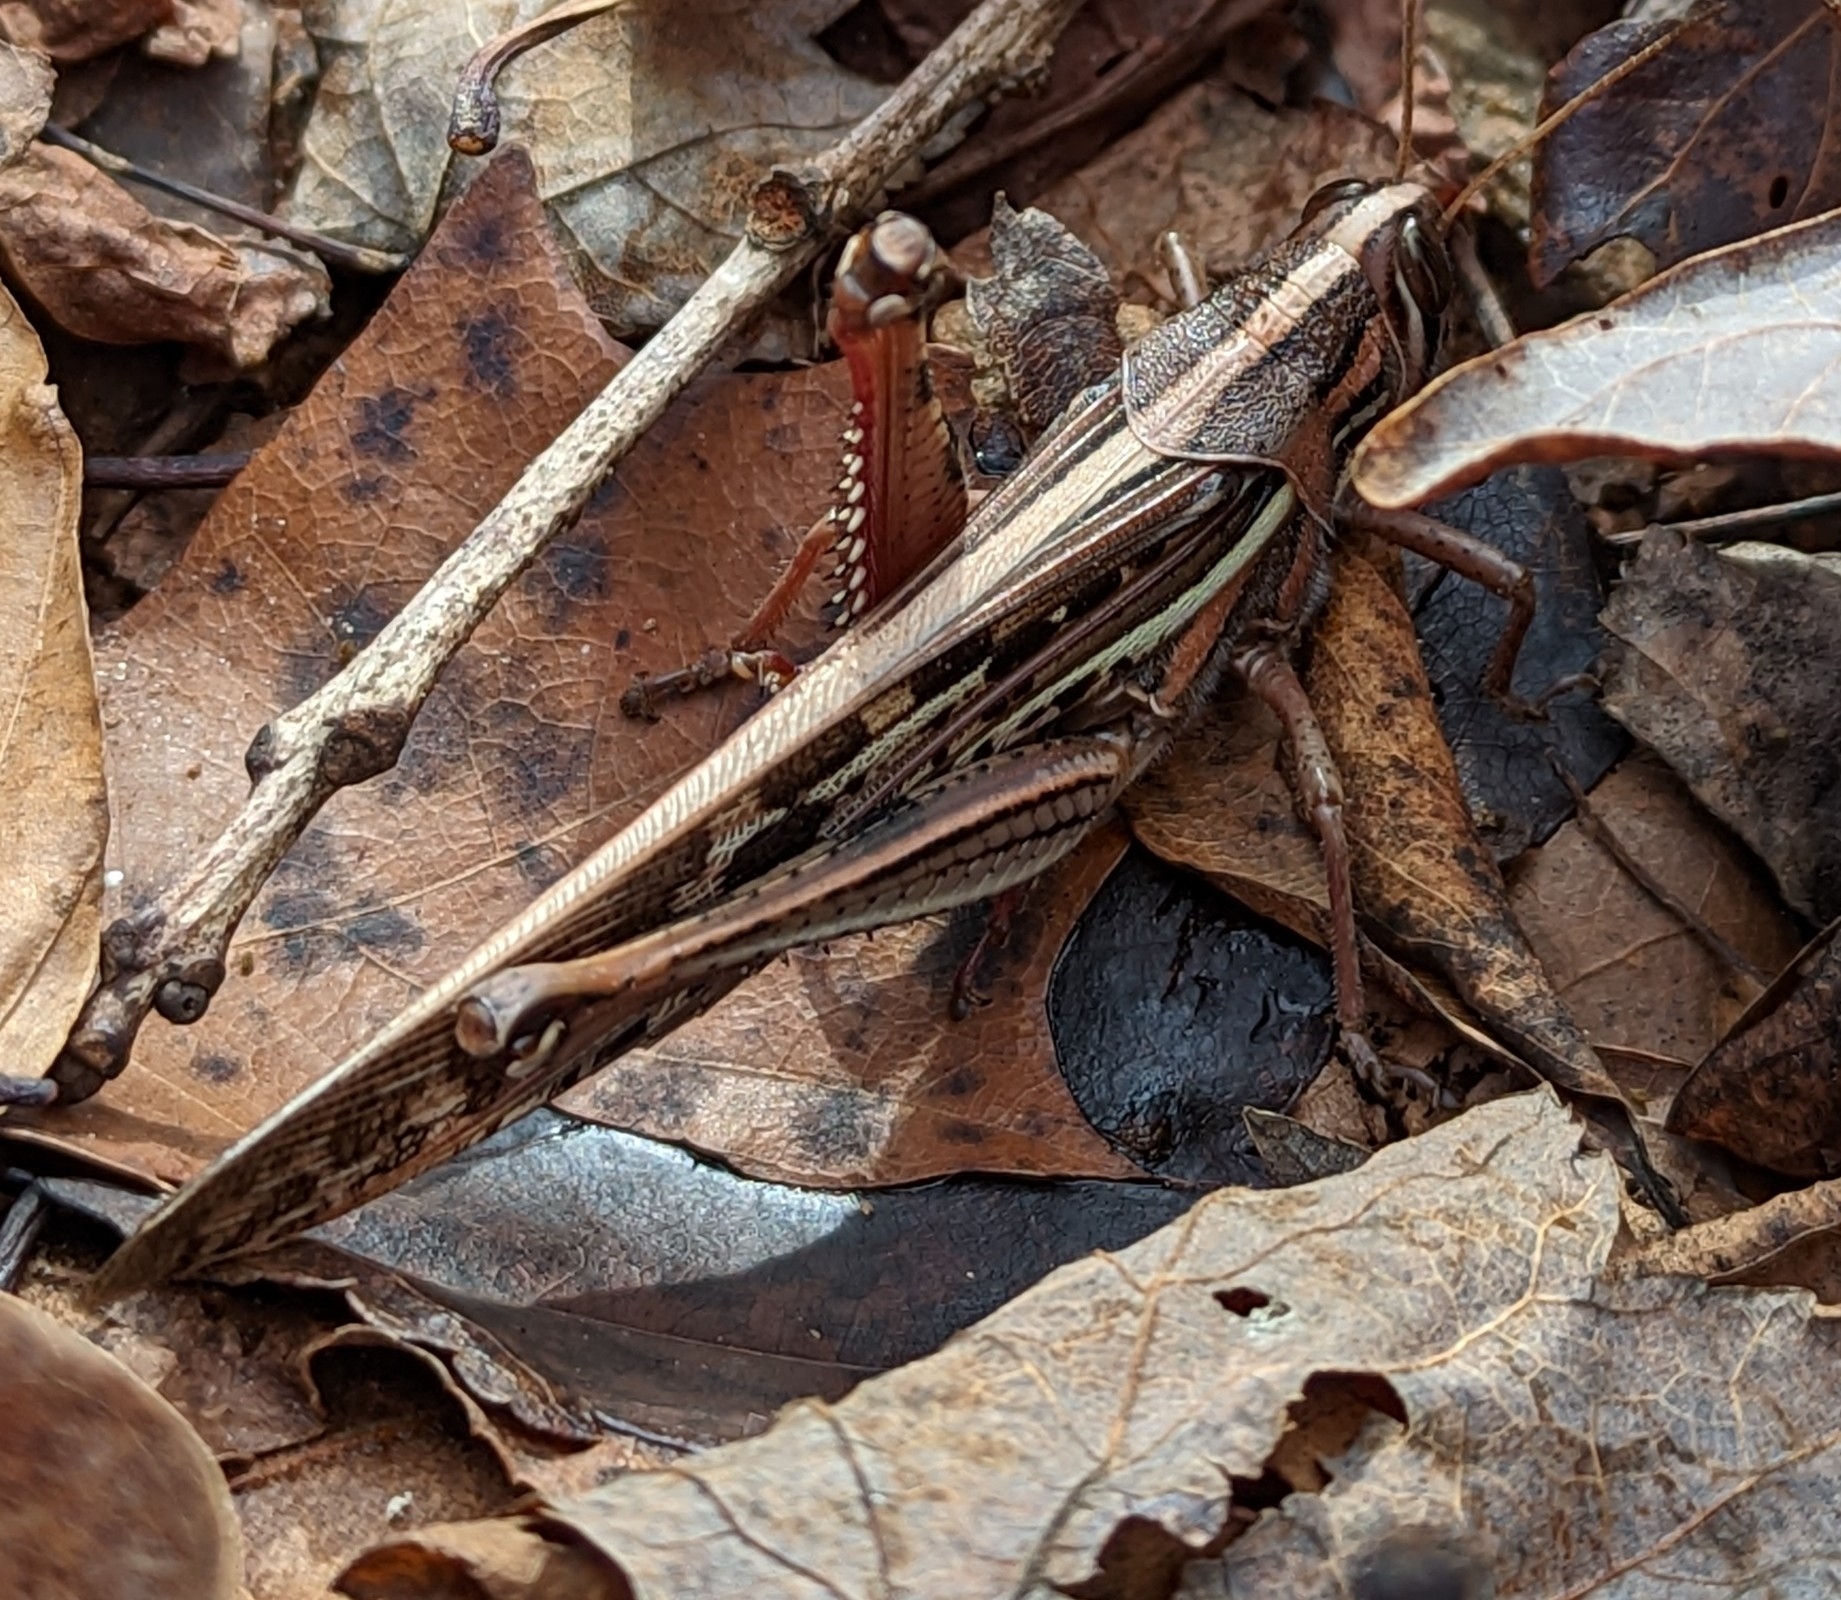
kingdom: Animalia
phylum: Arthropoda
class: Insecta
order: Orthoptera
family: Acrididae
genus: Schistocerca
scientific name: Schistocerca americana
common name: American bird locust
